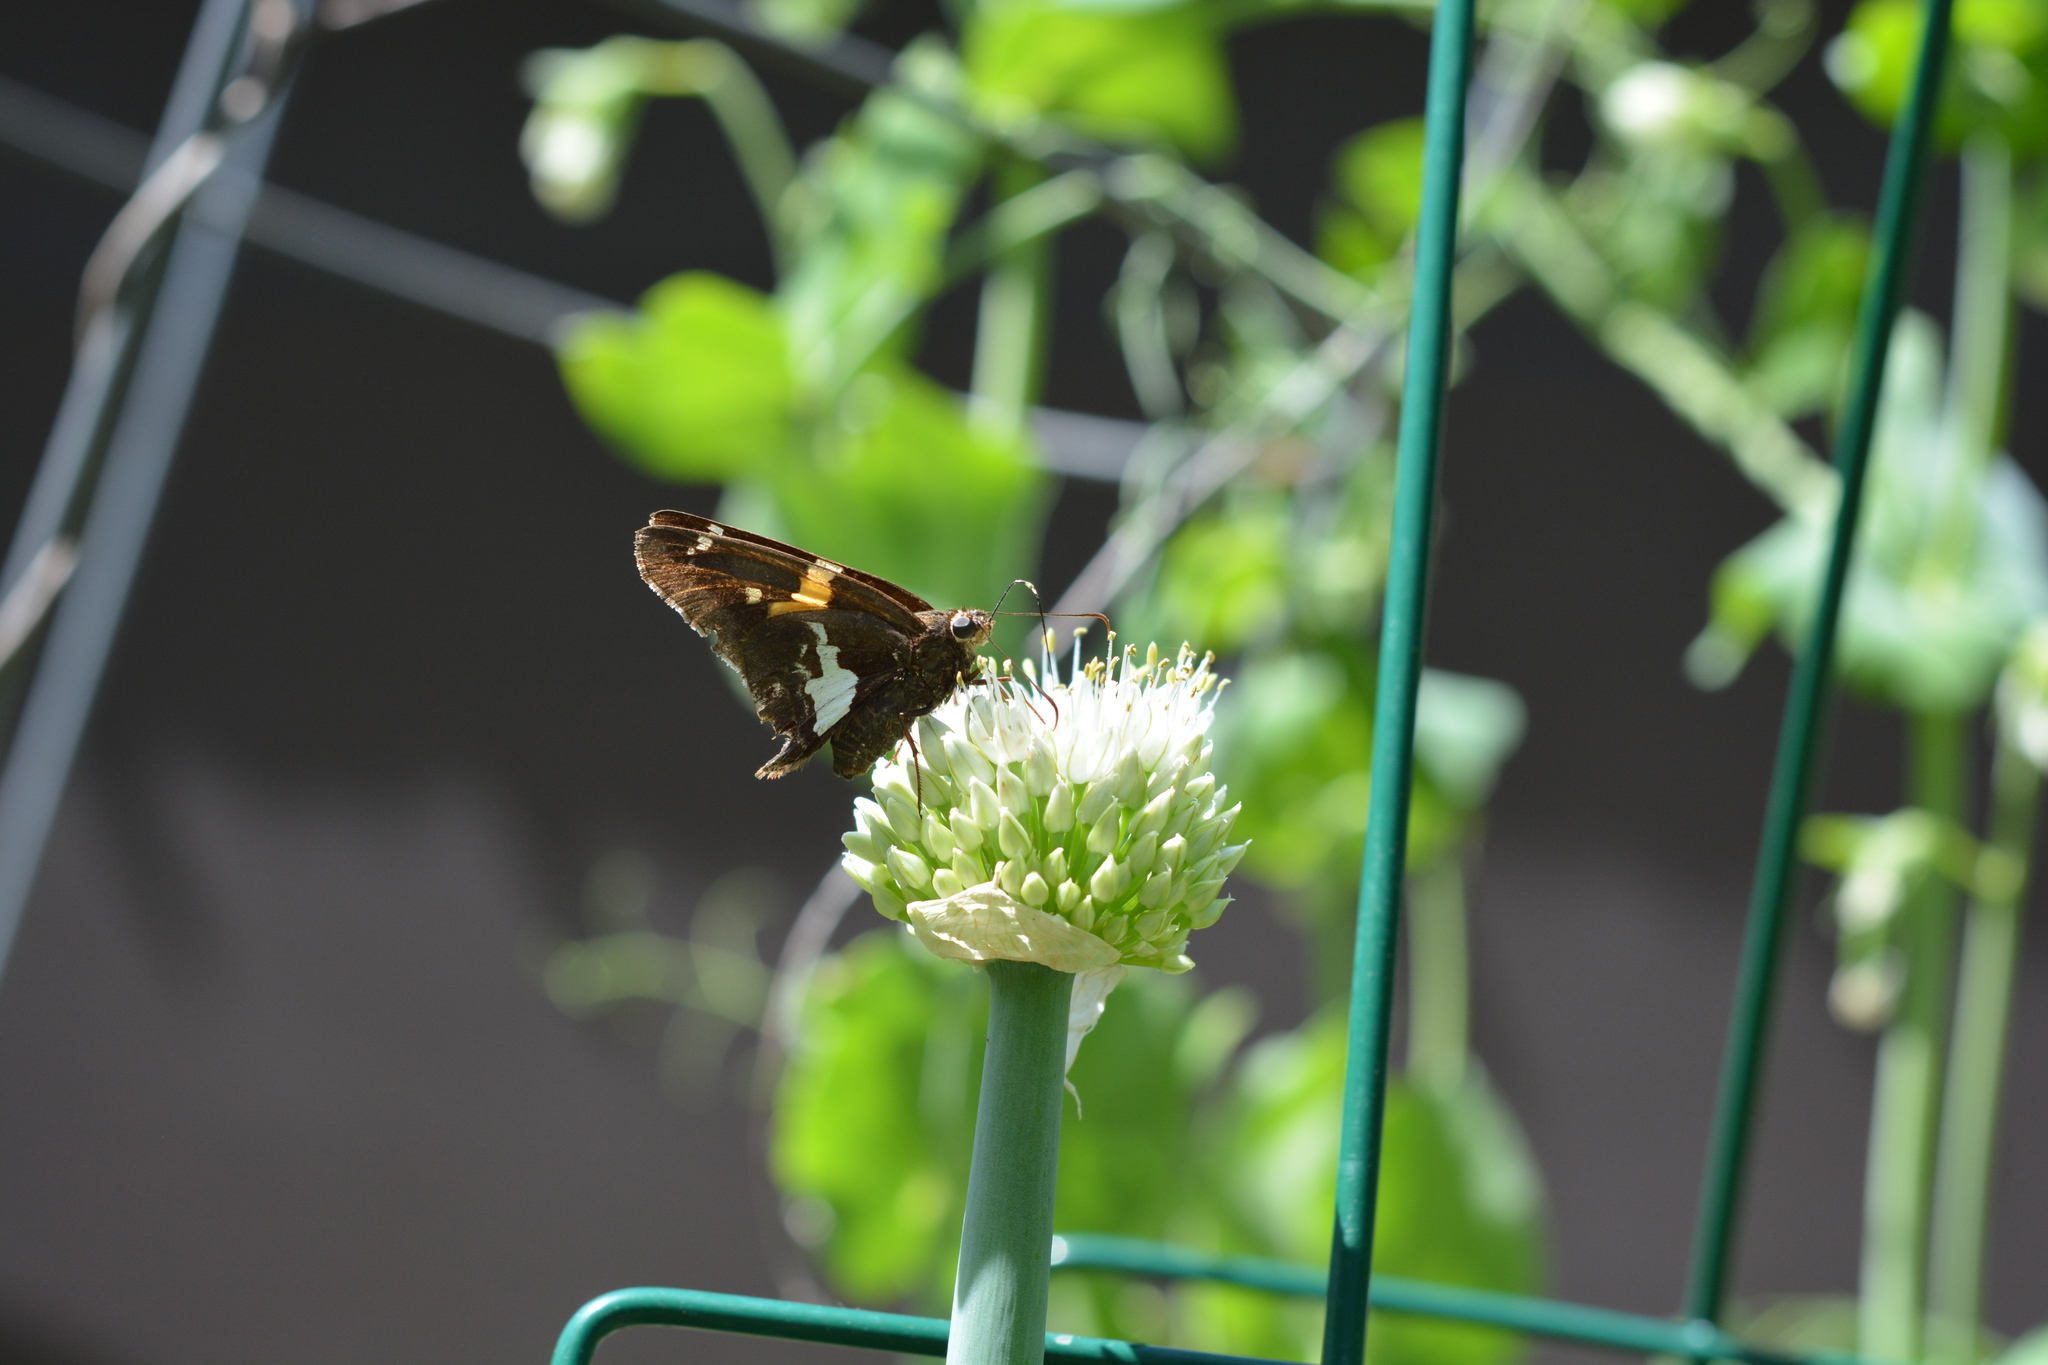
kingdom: Animalia
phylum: Arthropoda
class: Insecta
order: Lepidoptera
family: Hesperiidae
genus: Epargyreus
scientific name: Epargyreus clarus
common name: Silver-spotted skipper
